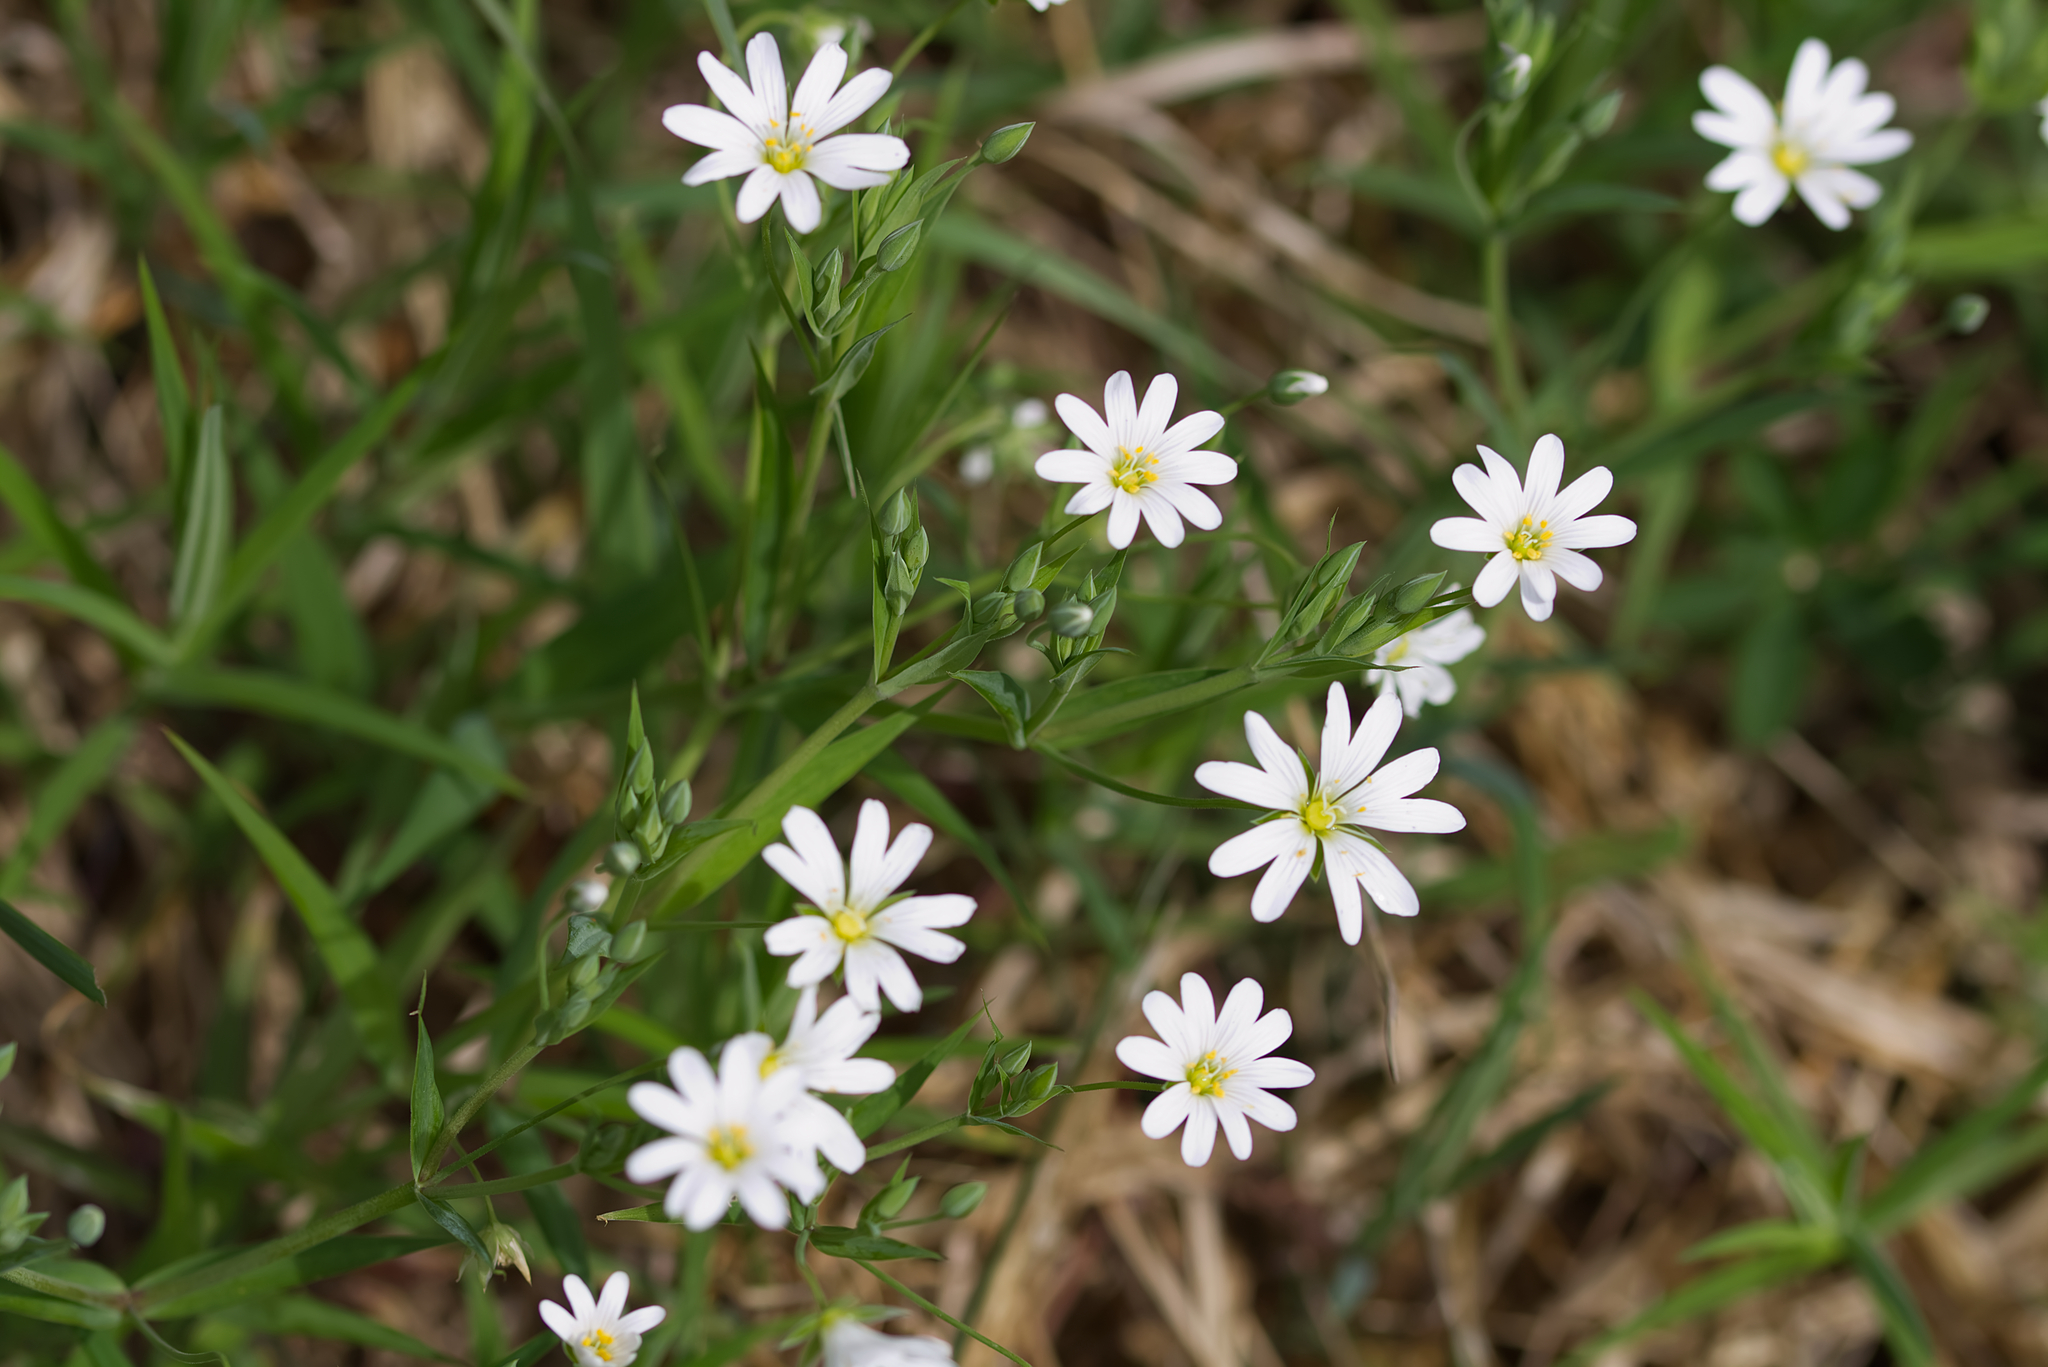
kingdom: Plantae
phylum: Tracheophyta
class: Magnoliopsida
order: Caryophyllales
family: Caryophyllaceae
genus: Rabelera
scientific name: Rabelera holostea
